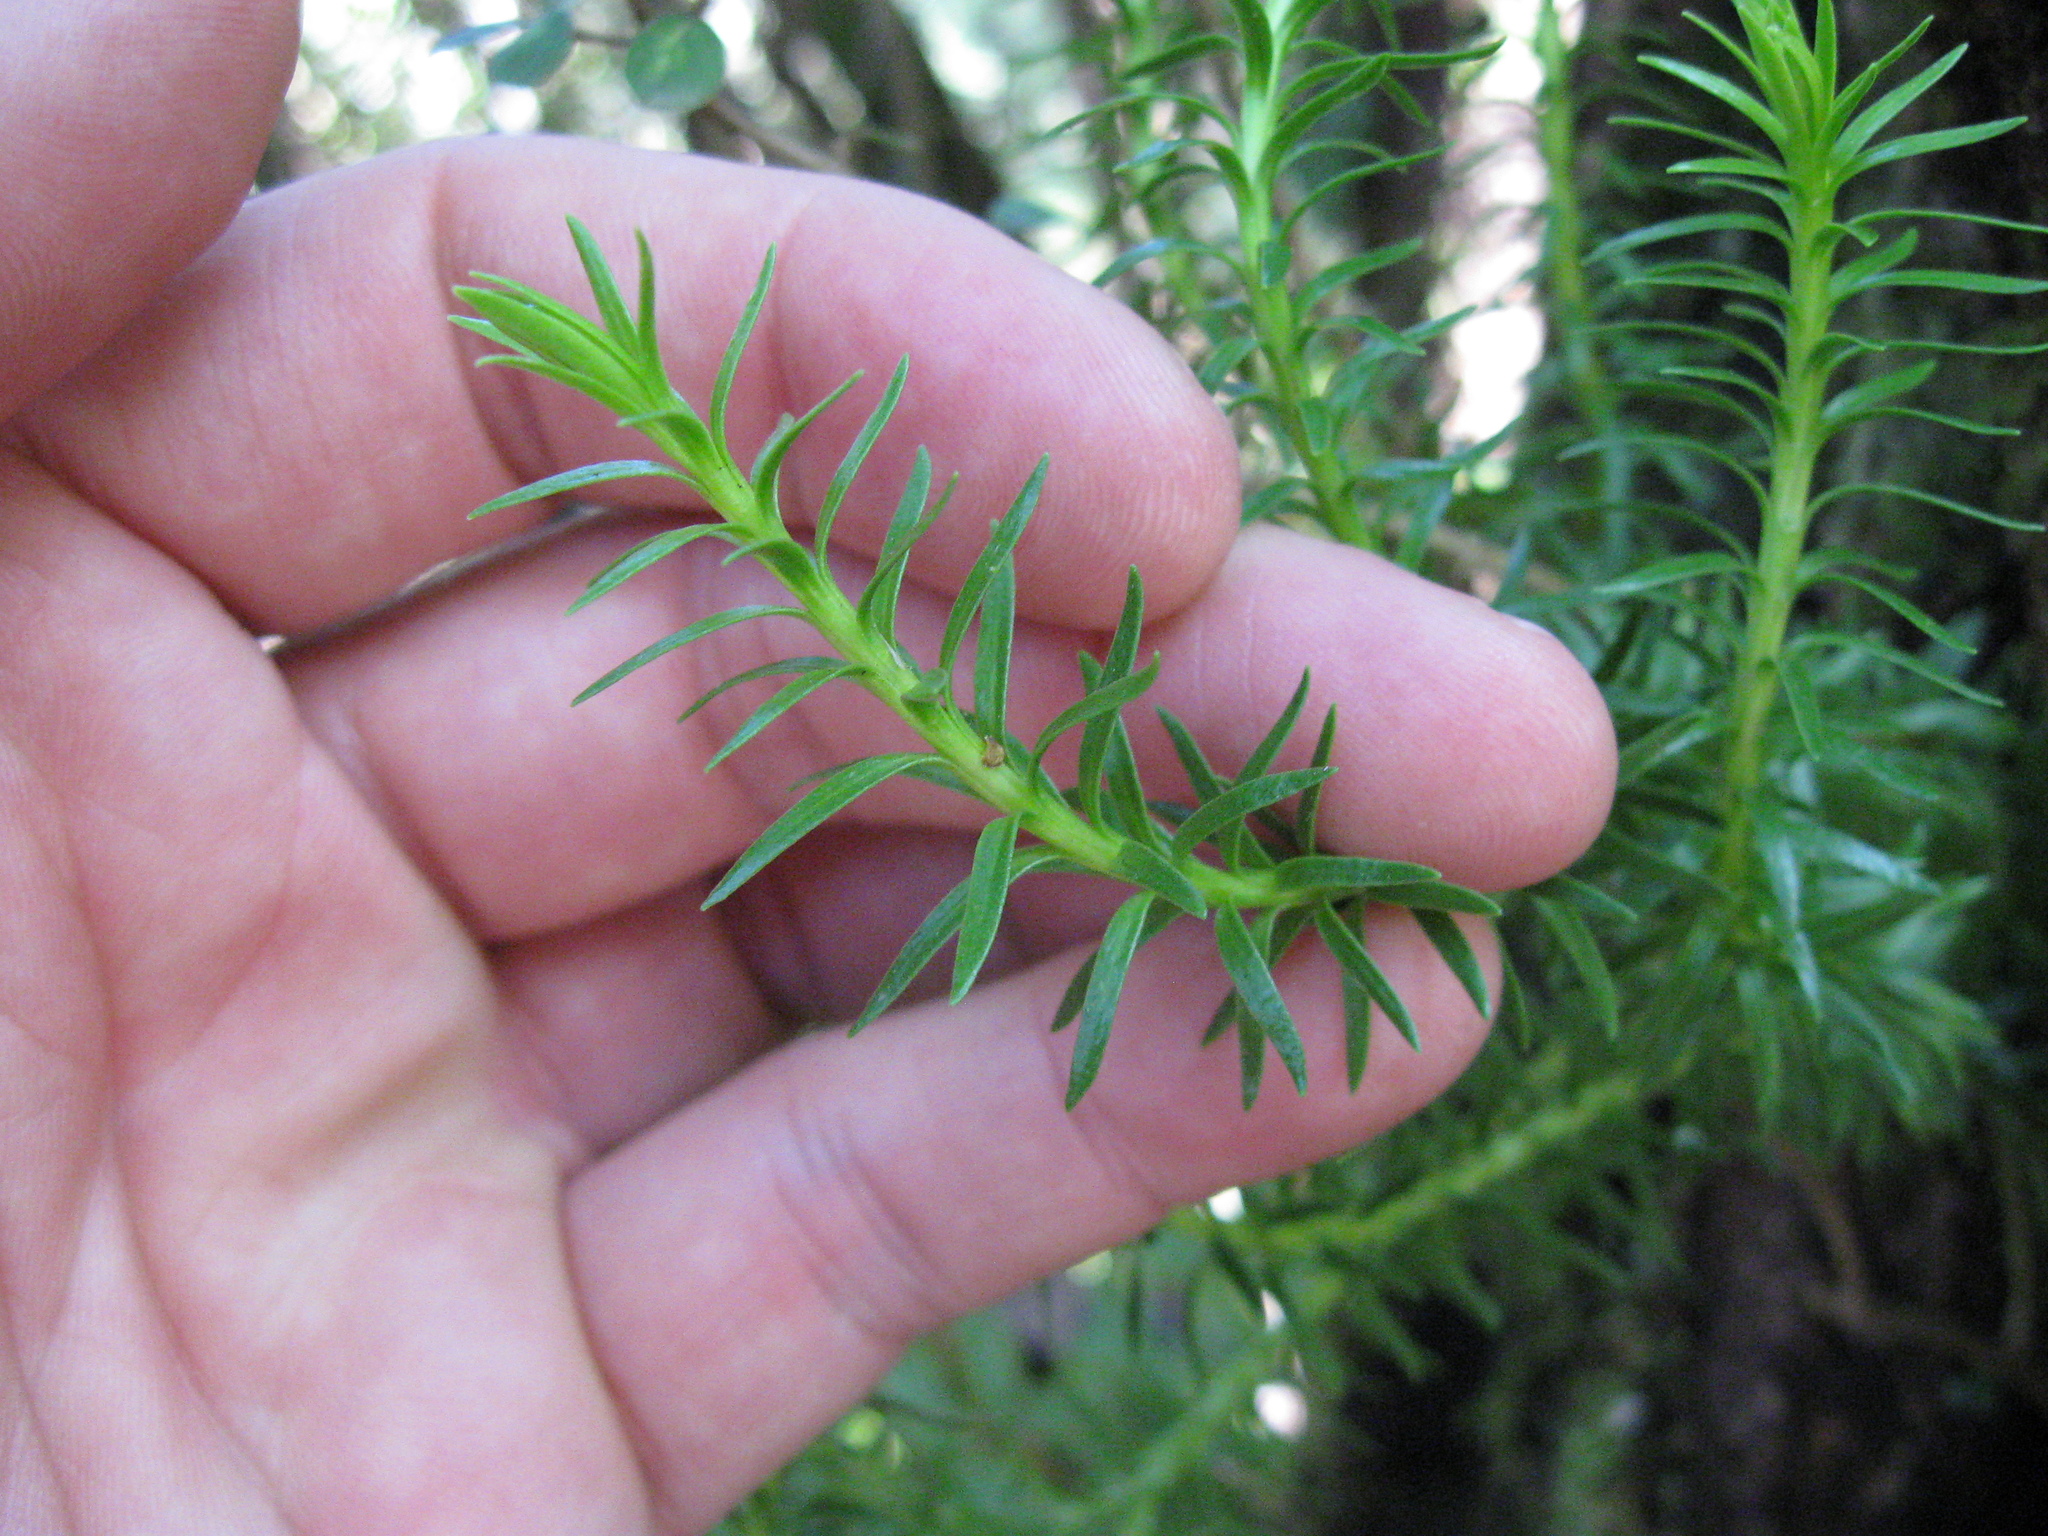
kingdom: Plantae
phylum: Tracheophyta
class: Lycopodiopsida
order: Lycopodiales
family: Lycopodiaceae
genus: Phlegmariurus
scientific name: Phlegmariurus varius
